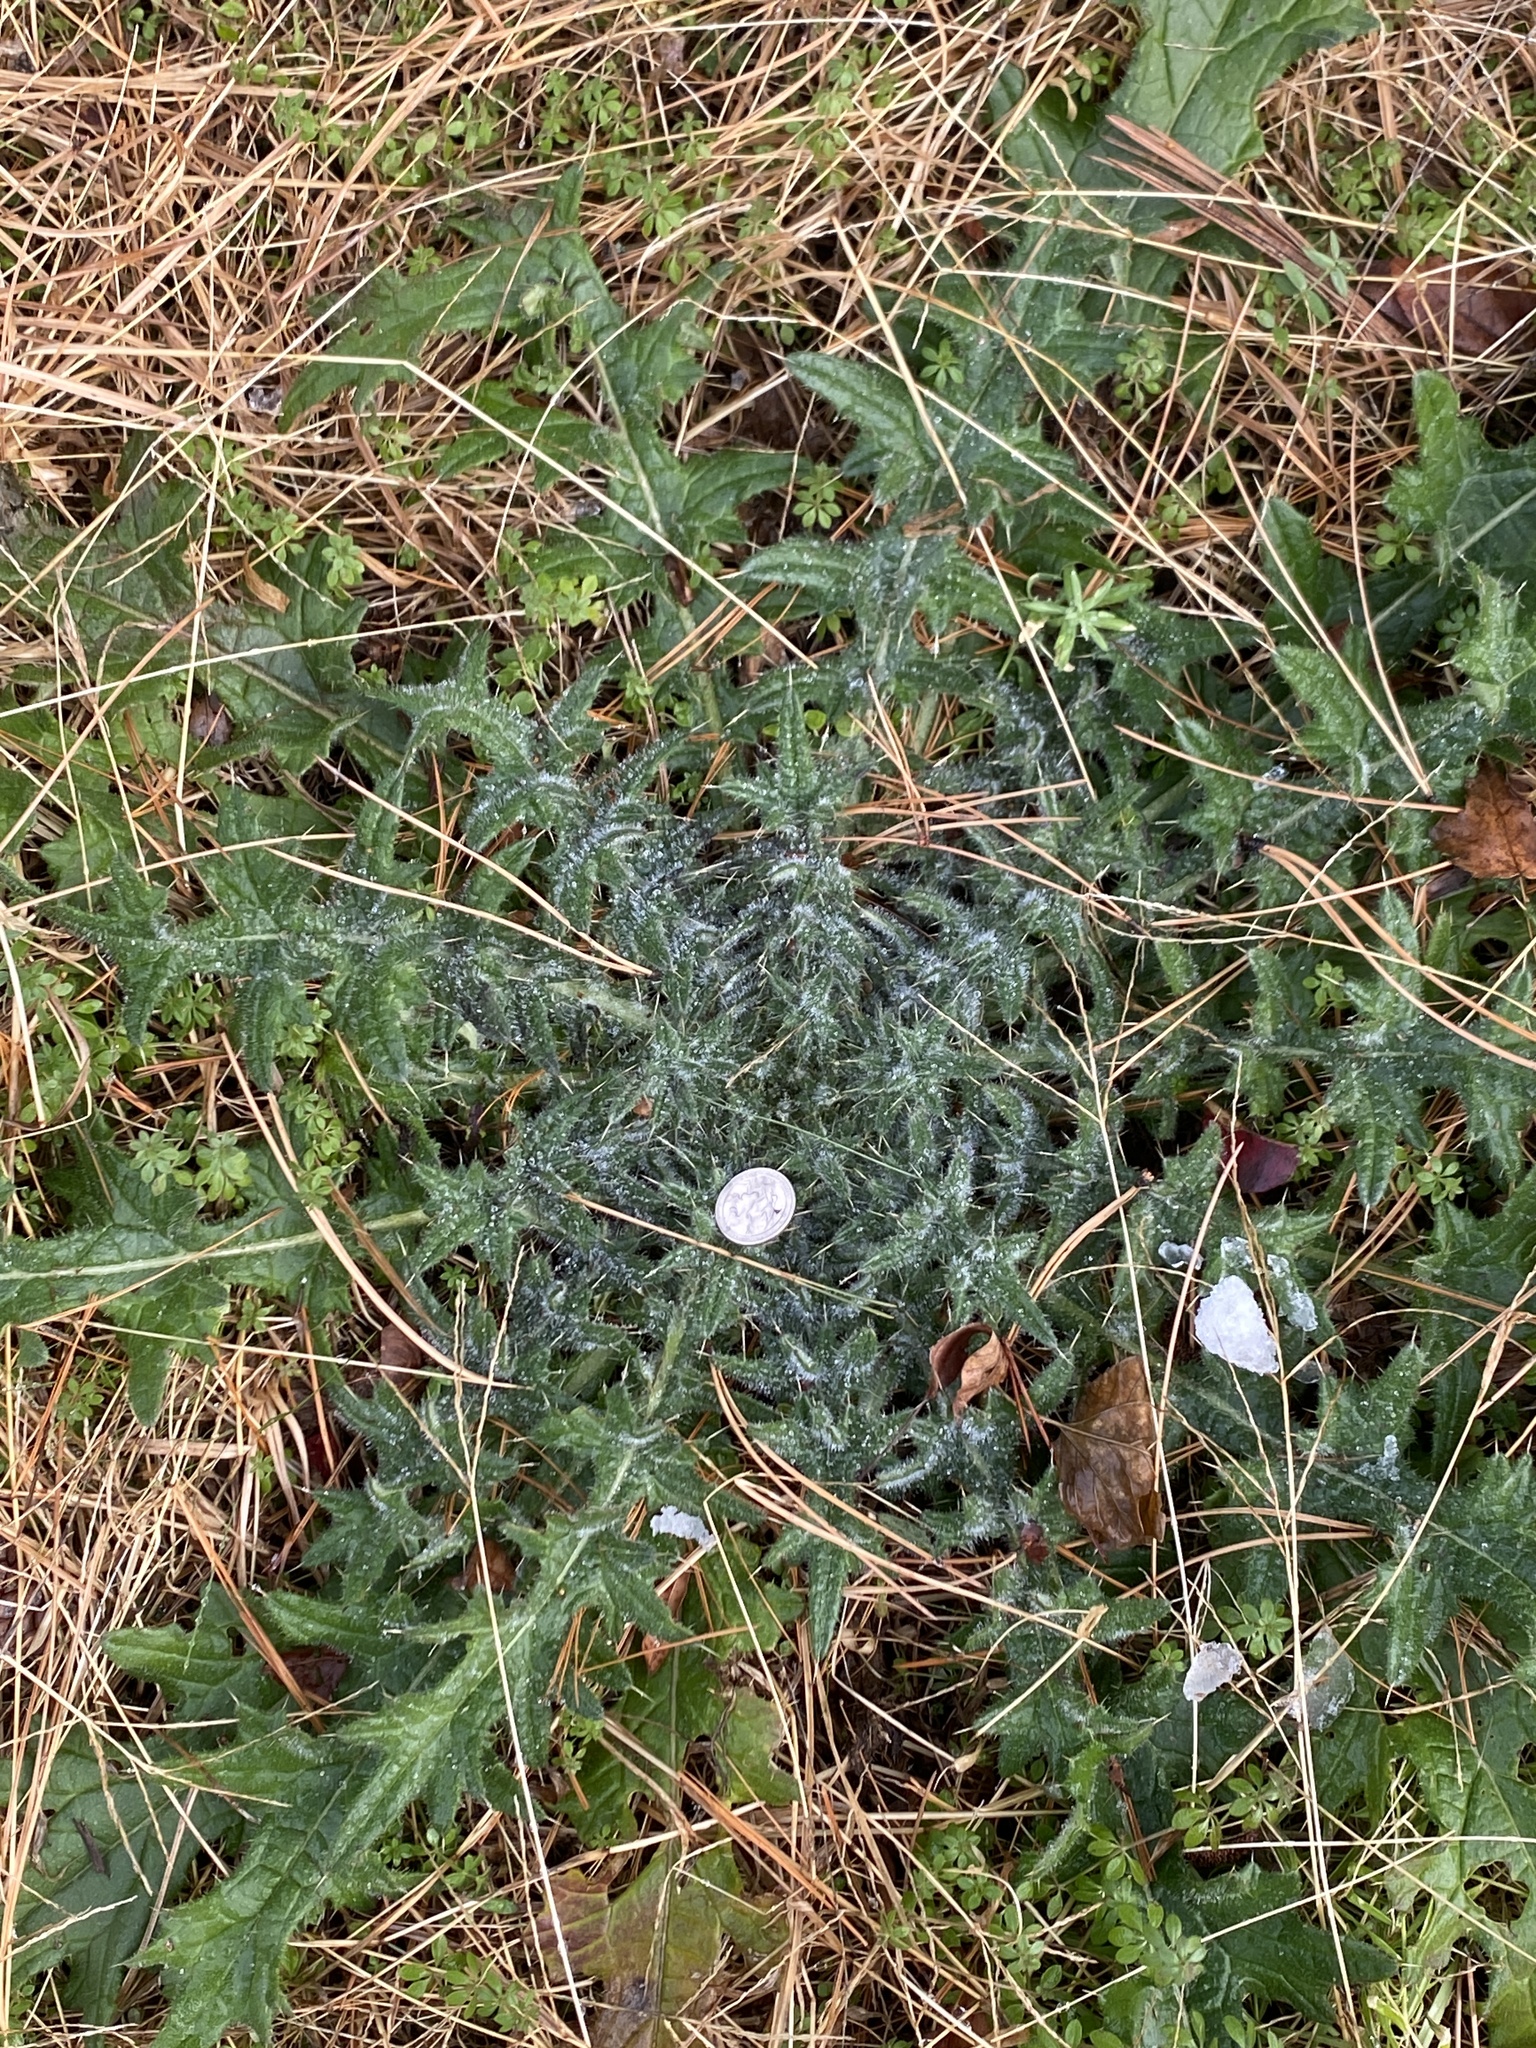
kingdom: Plantae
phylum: Tracheophyta
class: Magnoliopsida
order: Asterales
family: Asteraceae
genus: Cirsium
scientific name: Cirsium vulgare
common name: Bull thistle
